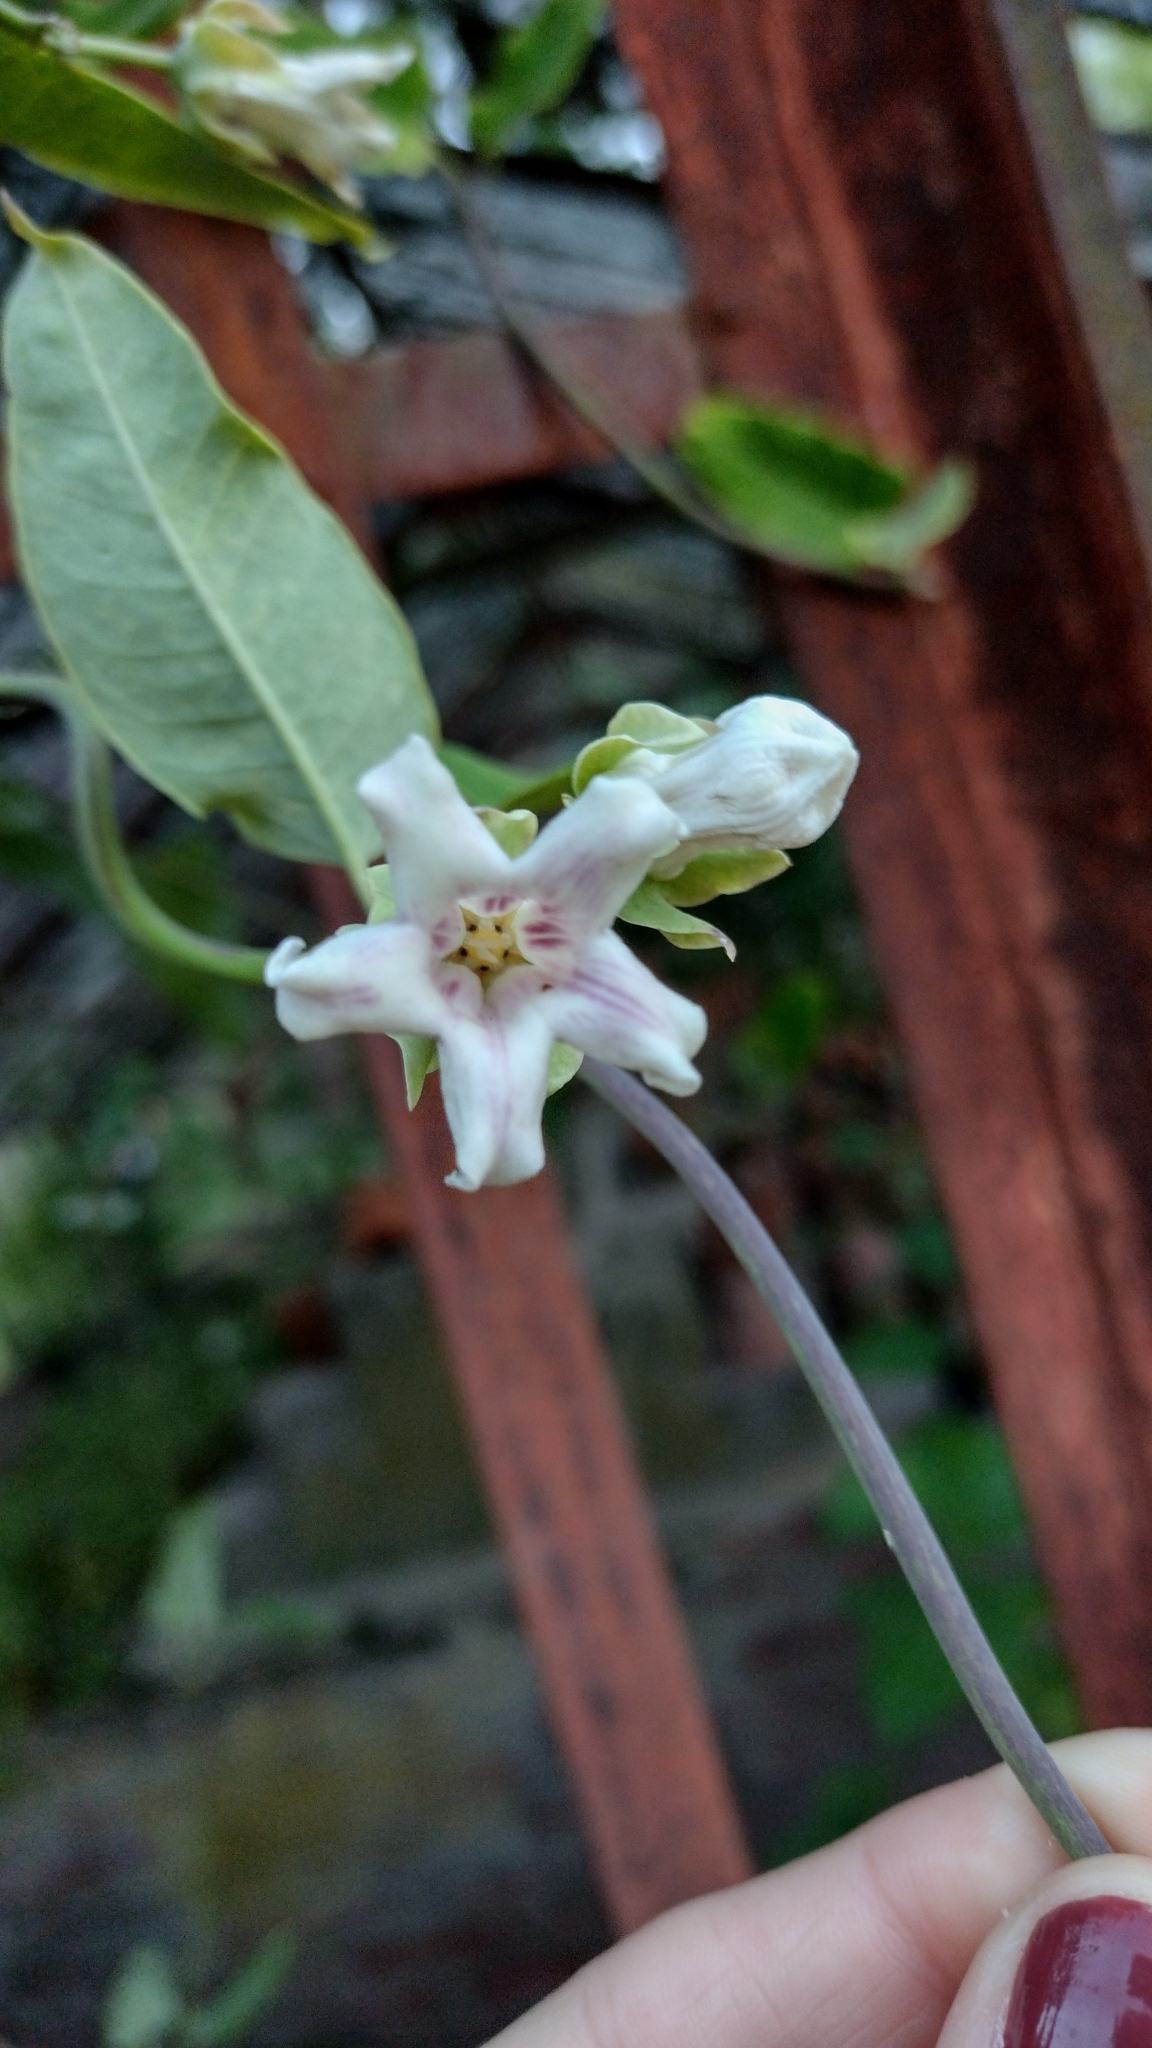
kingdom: Plantae
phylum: Tracheophyta
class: Magnoliopsida
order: Gentianales
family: Apocynaceae
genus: Araujia
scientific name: Araujia sericifera
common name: White bladderflower
